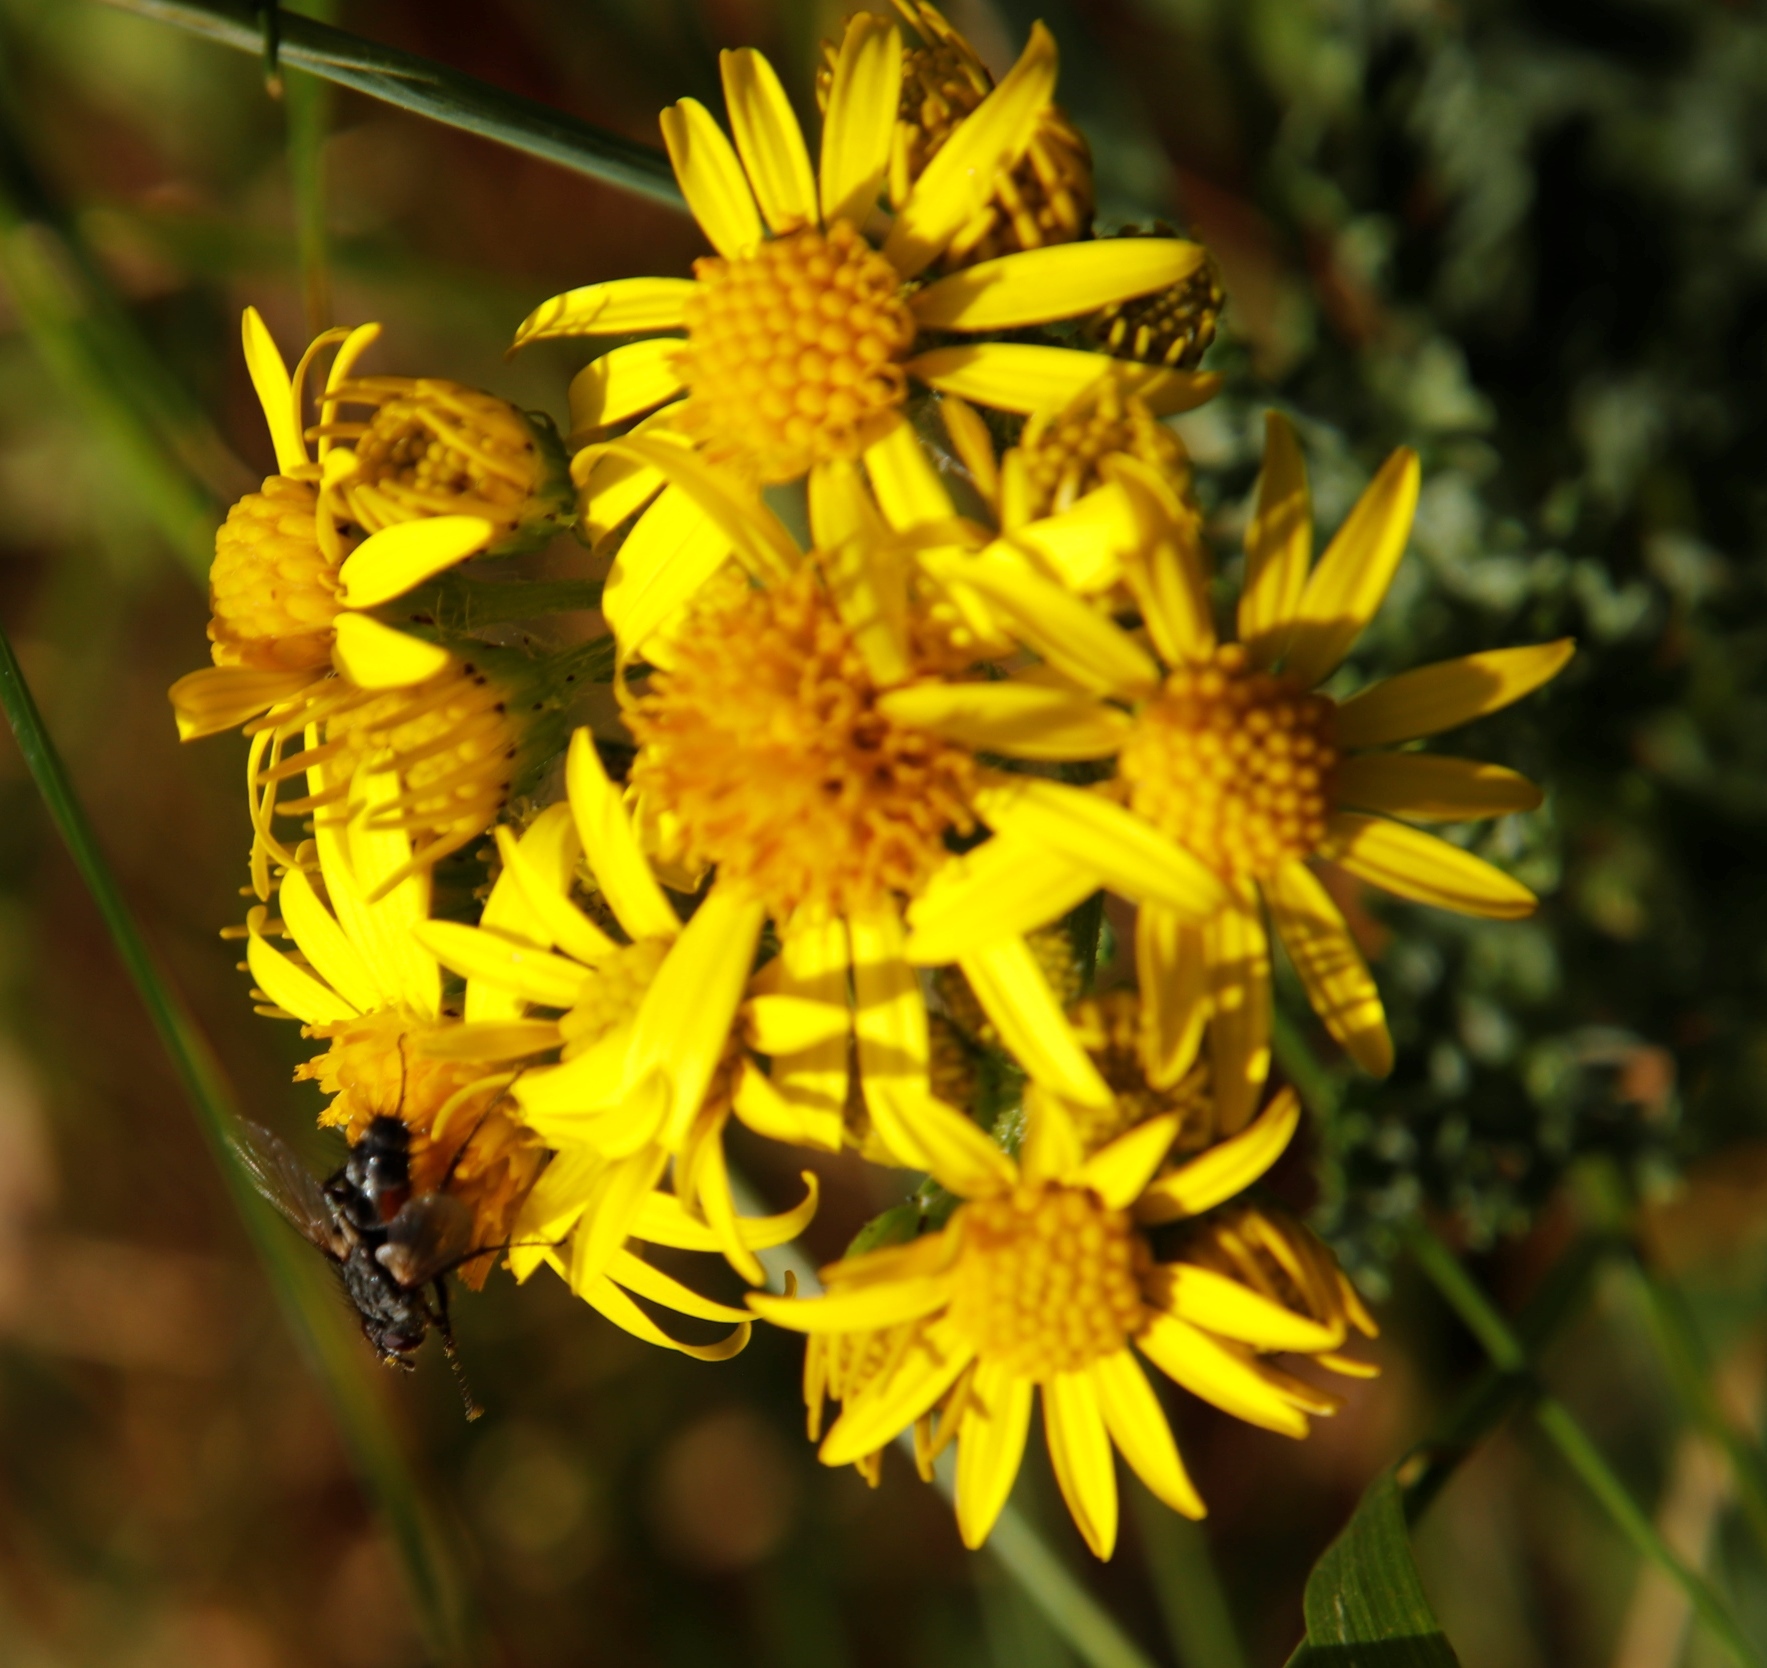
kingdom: Animalia
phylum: Arthropoda
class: Insecta
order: Diptera
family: Tachinidae
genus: Eriothrix
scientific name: Eriothrix rufomaculatus
